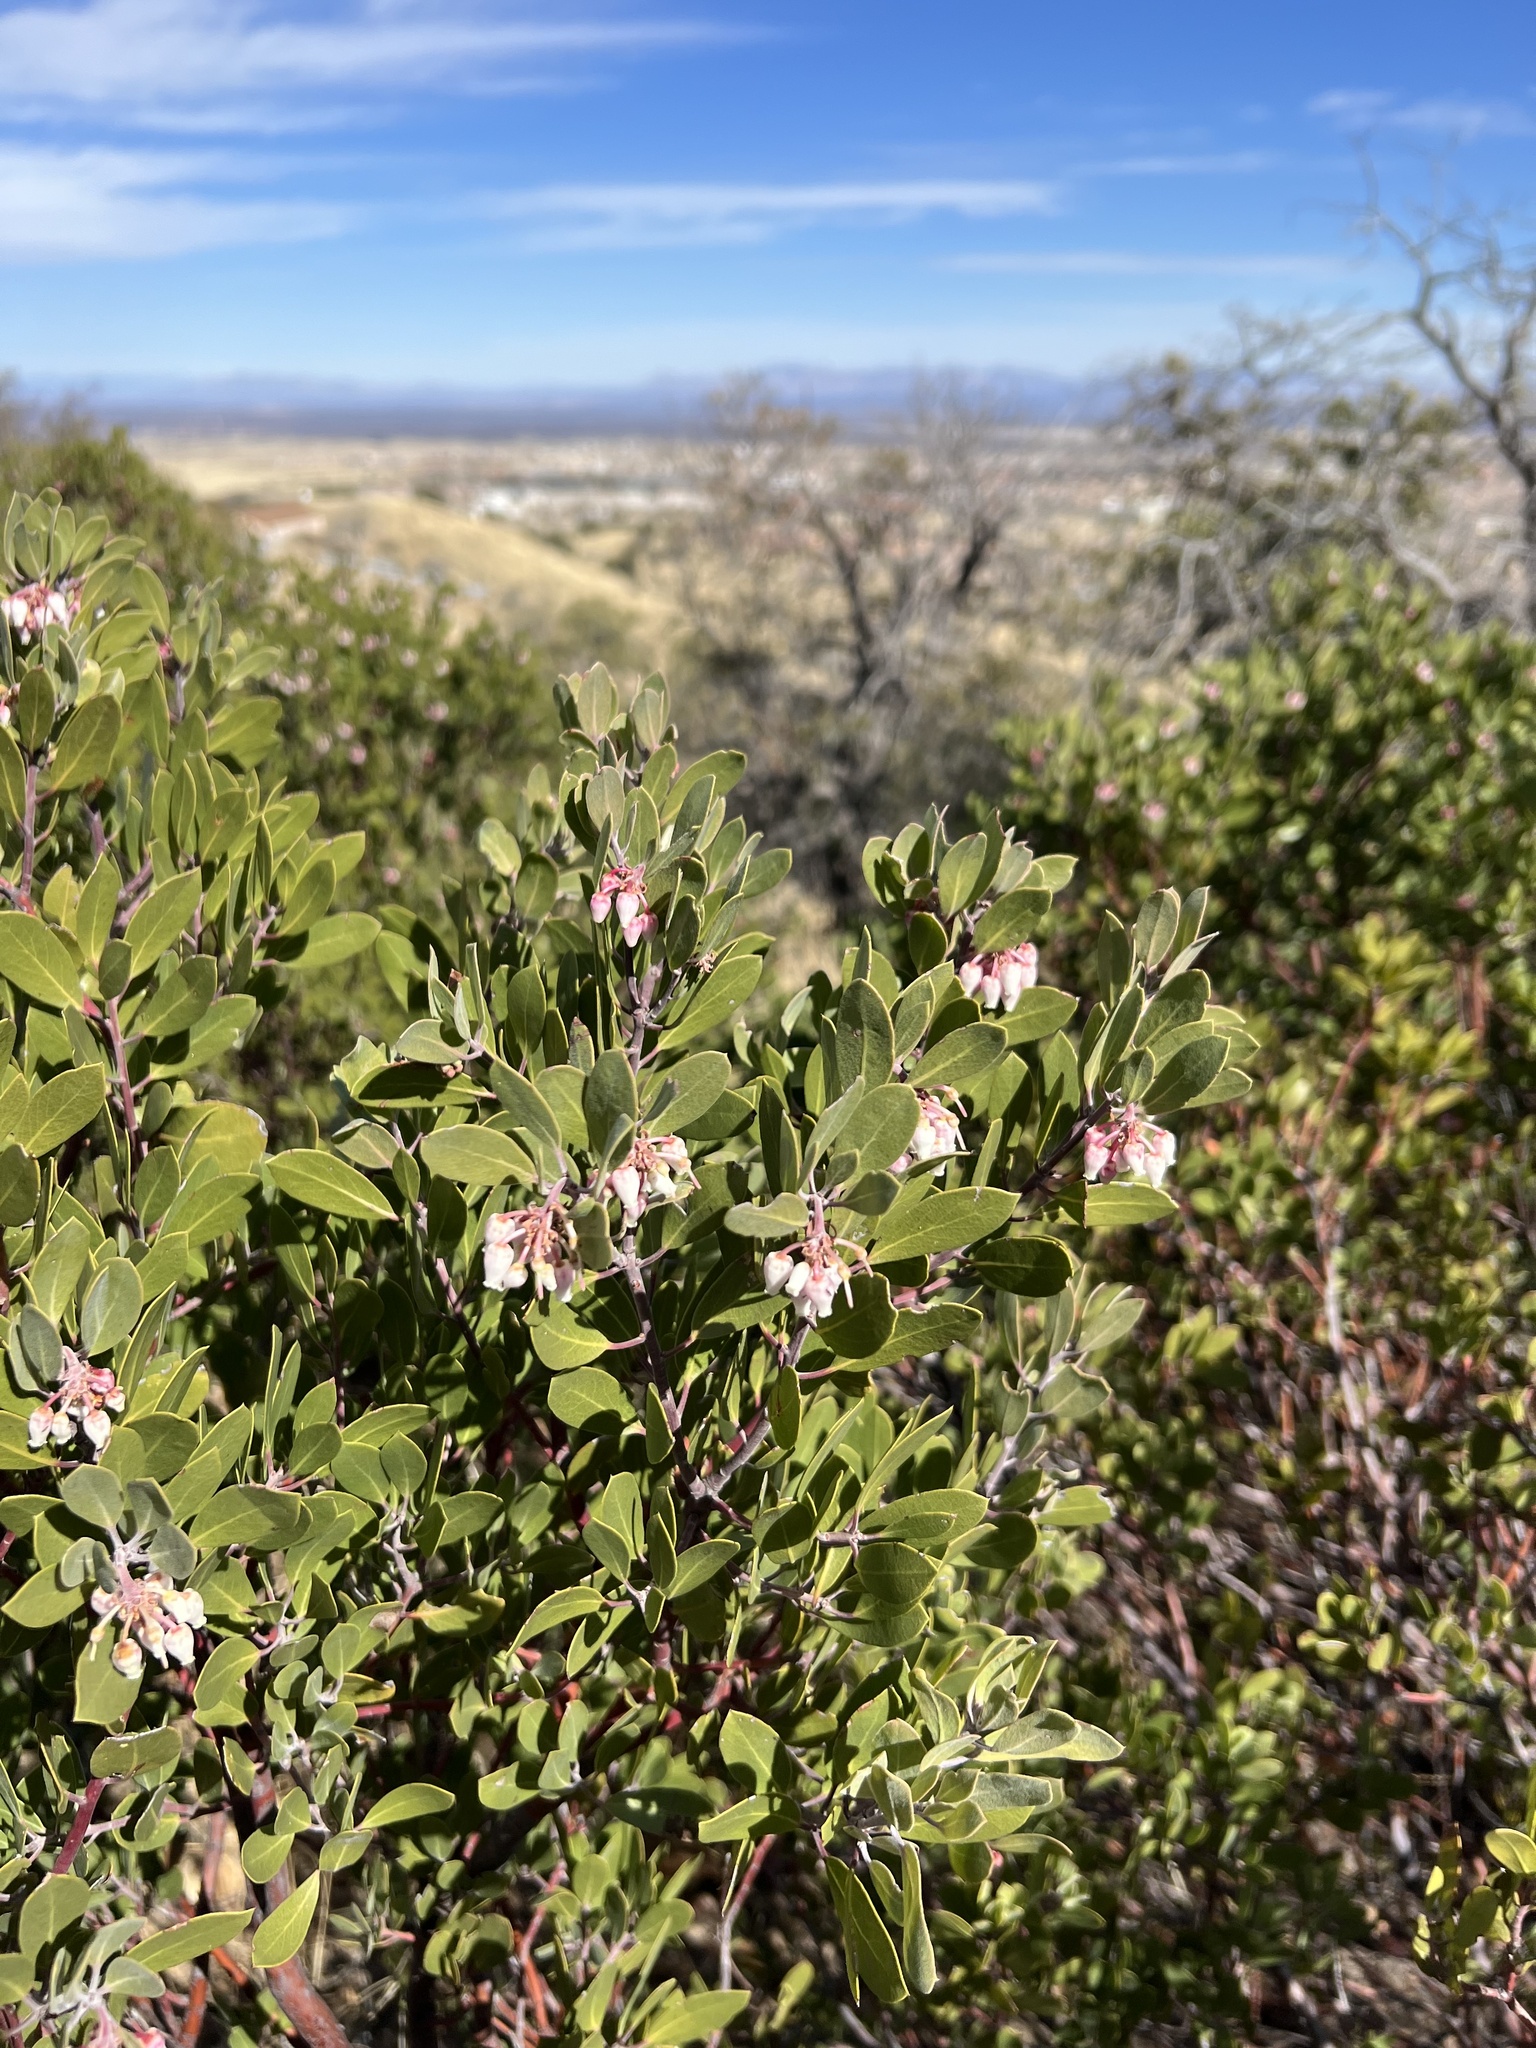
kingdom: Plantae
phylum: Tracheophyta
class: Magnoliopsida
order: Ericales
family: Ericaceae
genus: Arctostaphylos
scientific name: Arctostaphylos pungens
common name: Mexican manzanita
